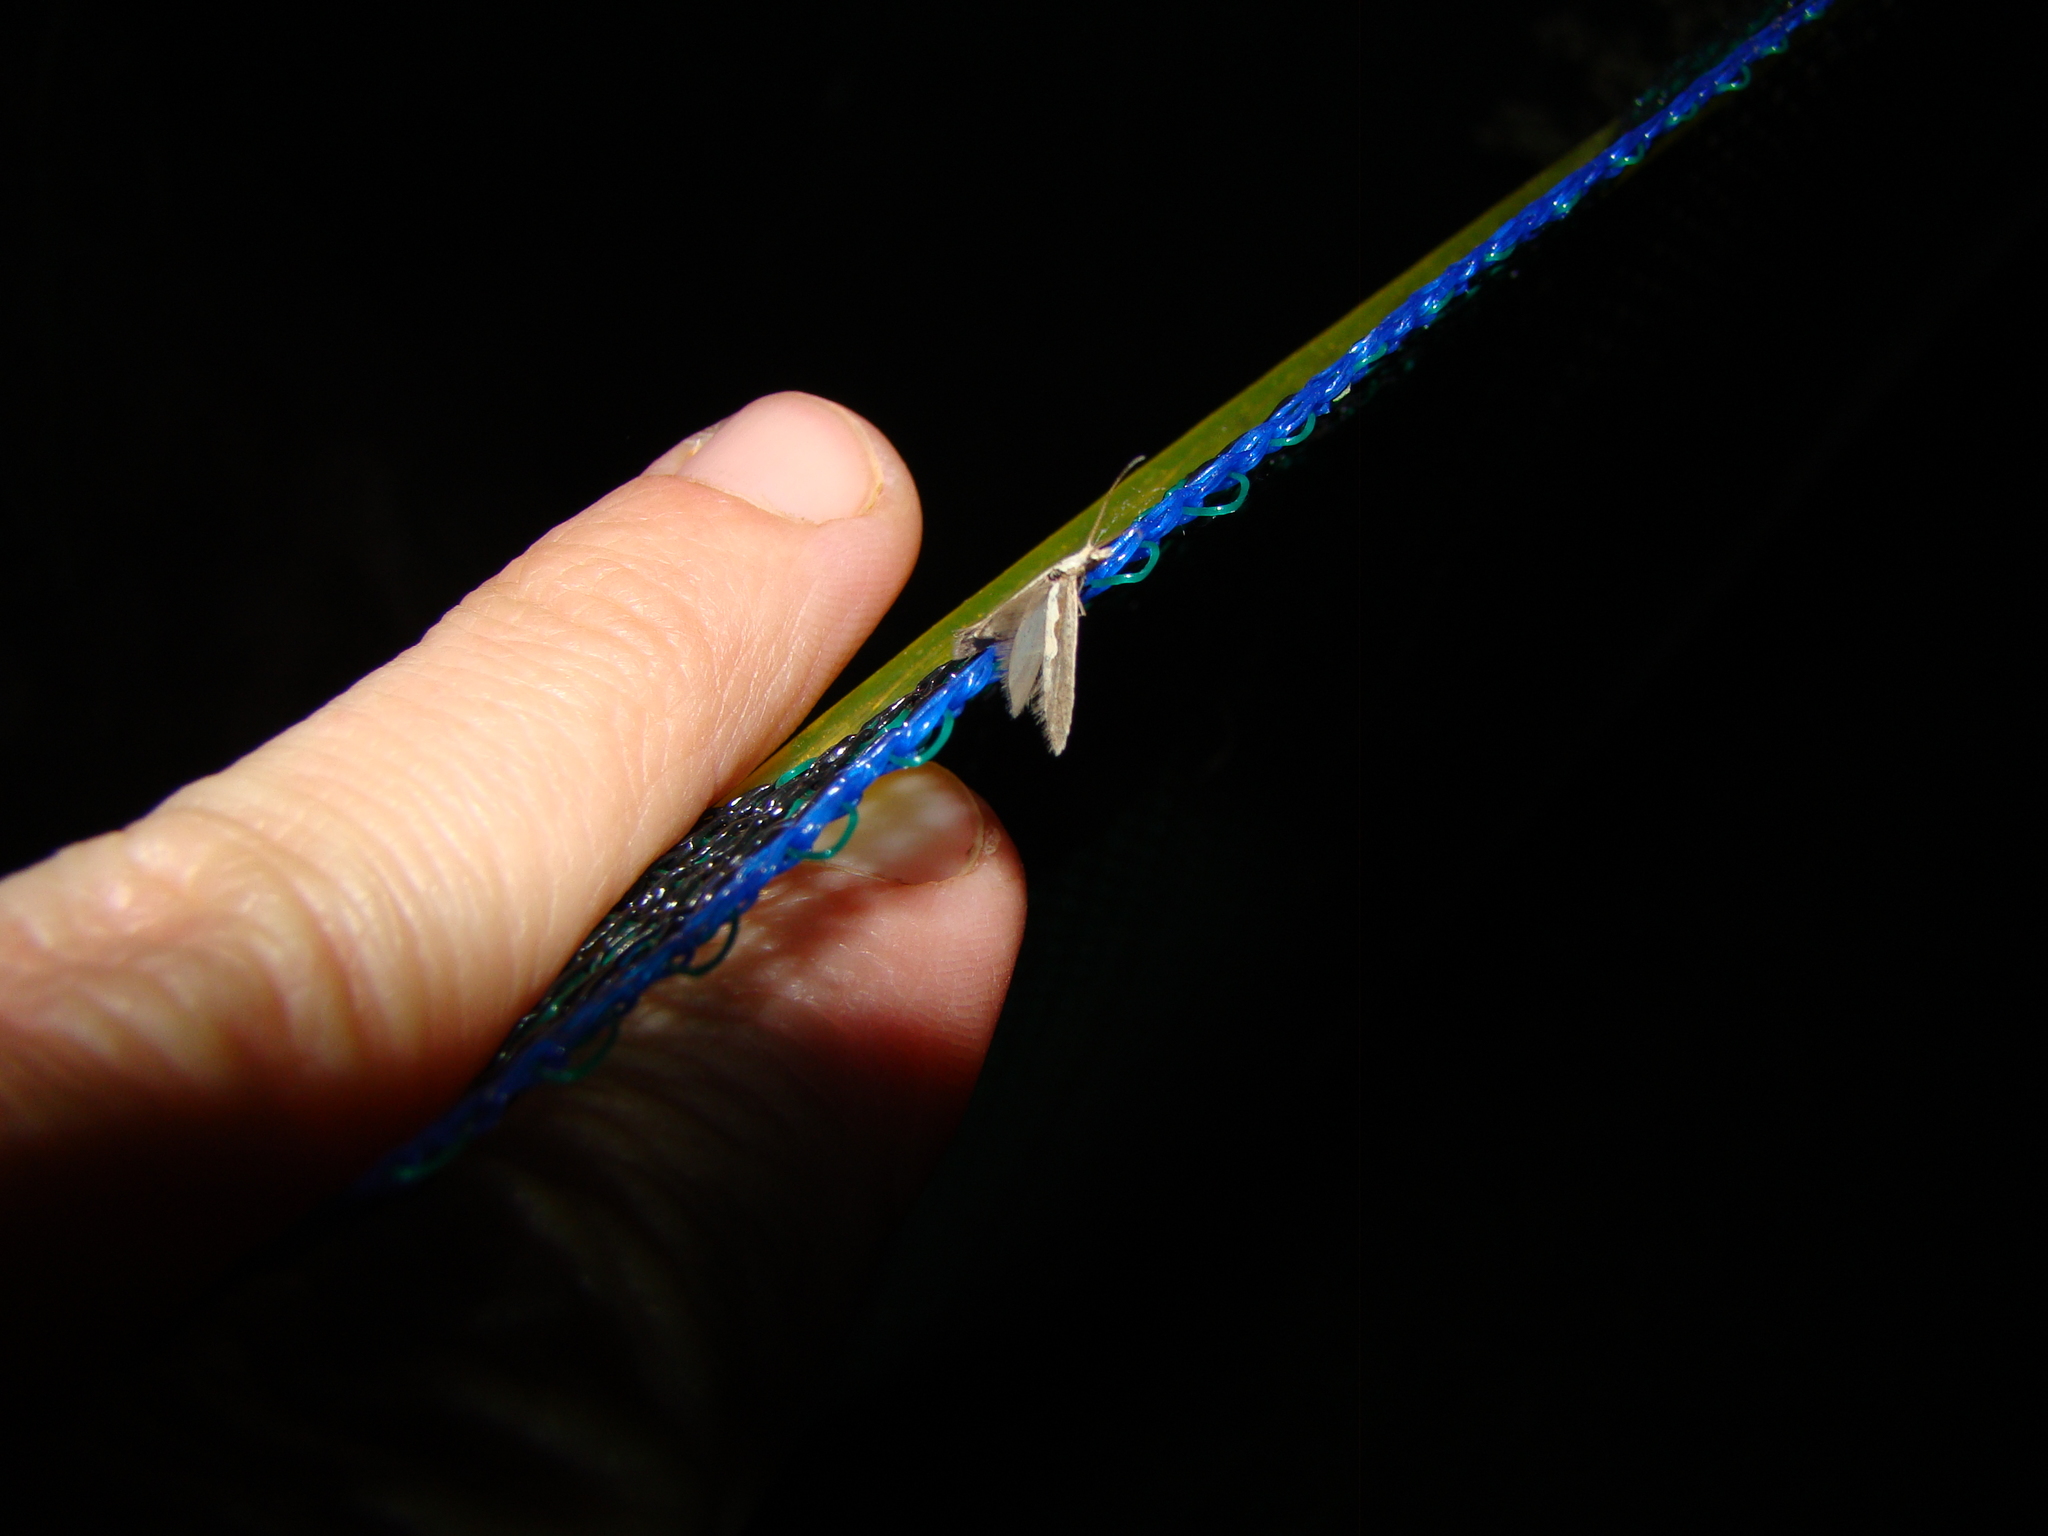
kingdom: Animalia
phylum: Arthropoda
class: Insecta
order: Lepidoptera
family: Plutellidae
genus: Plutella
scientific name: Plutella xylostella
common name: Diamond-back moth
